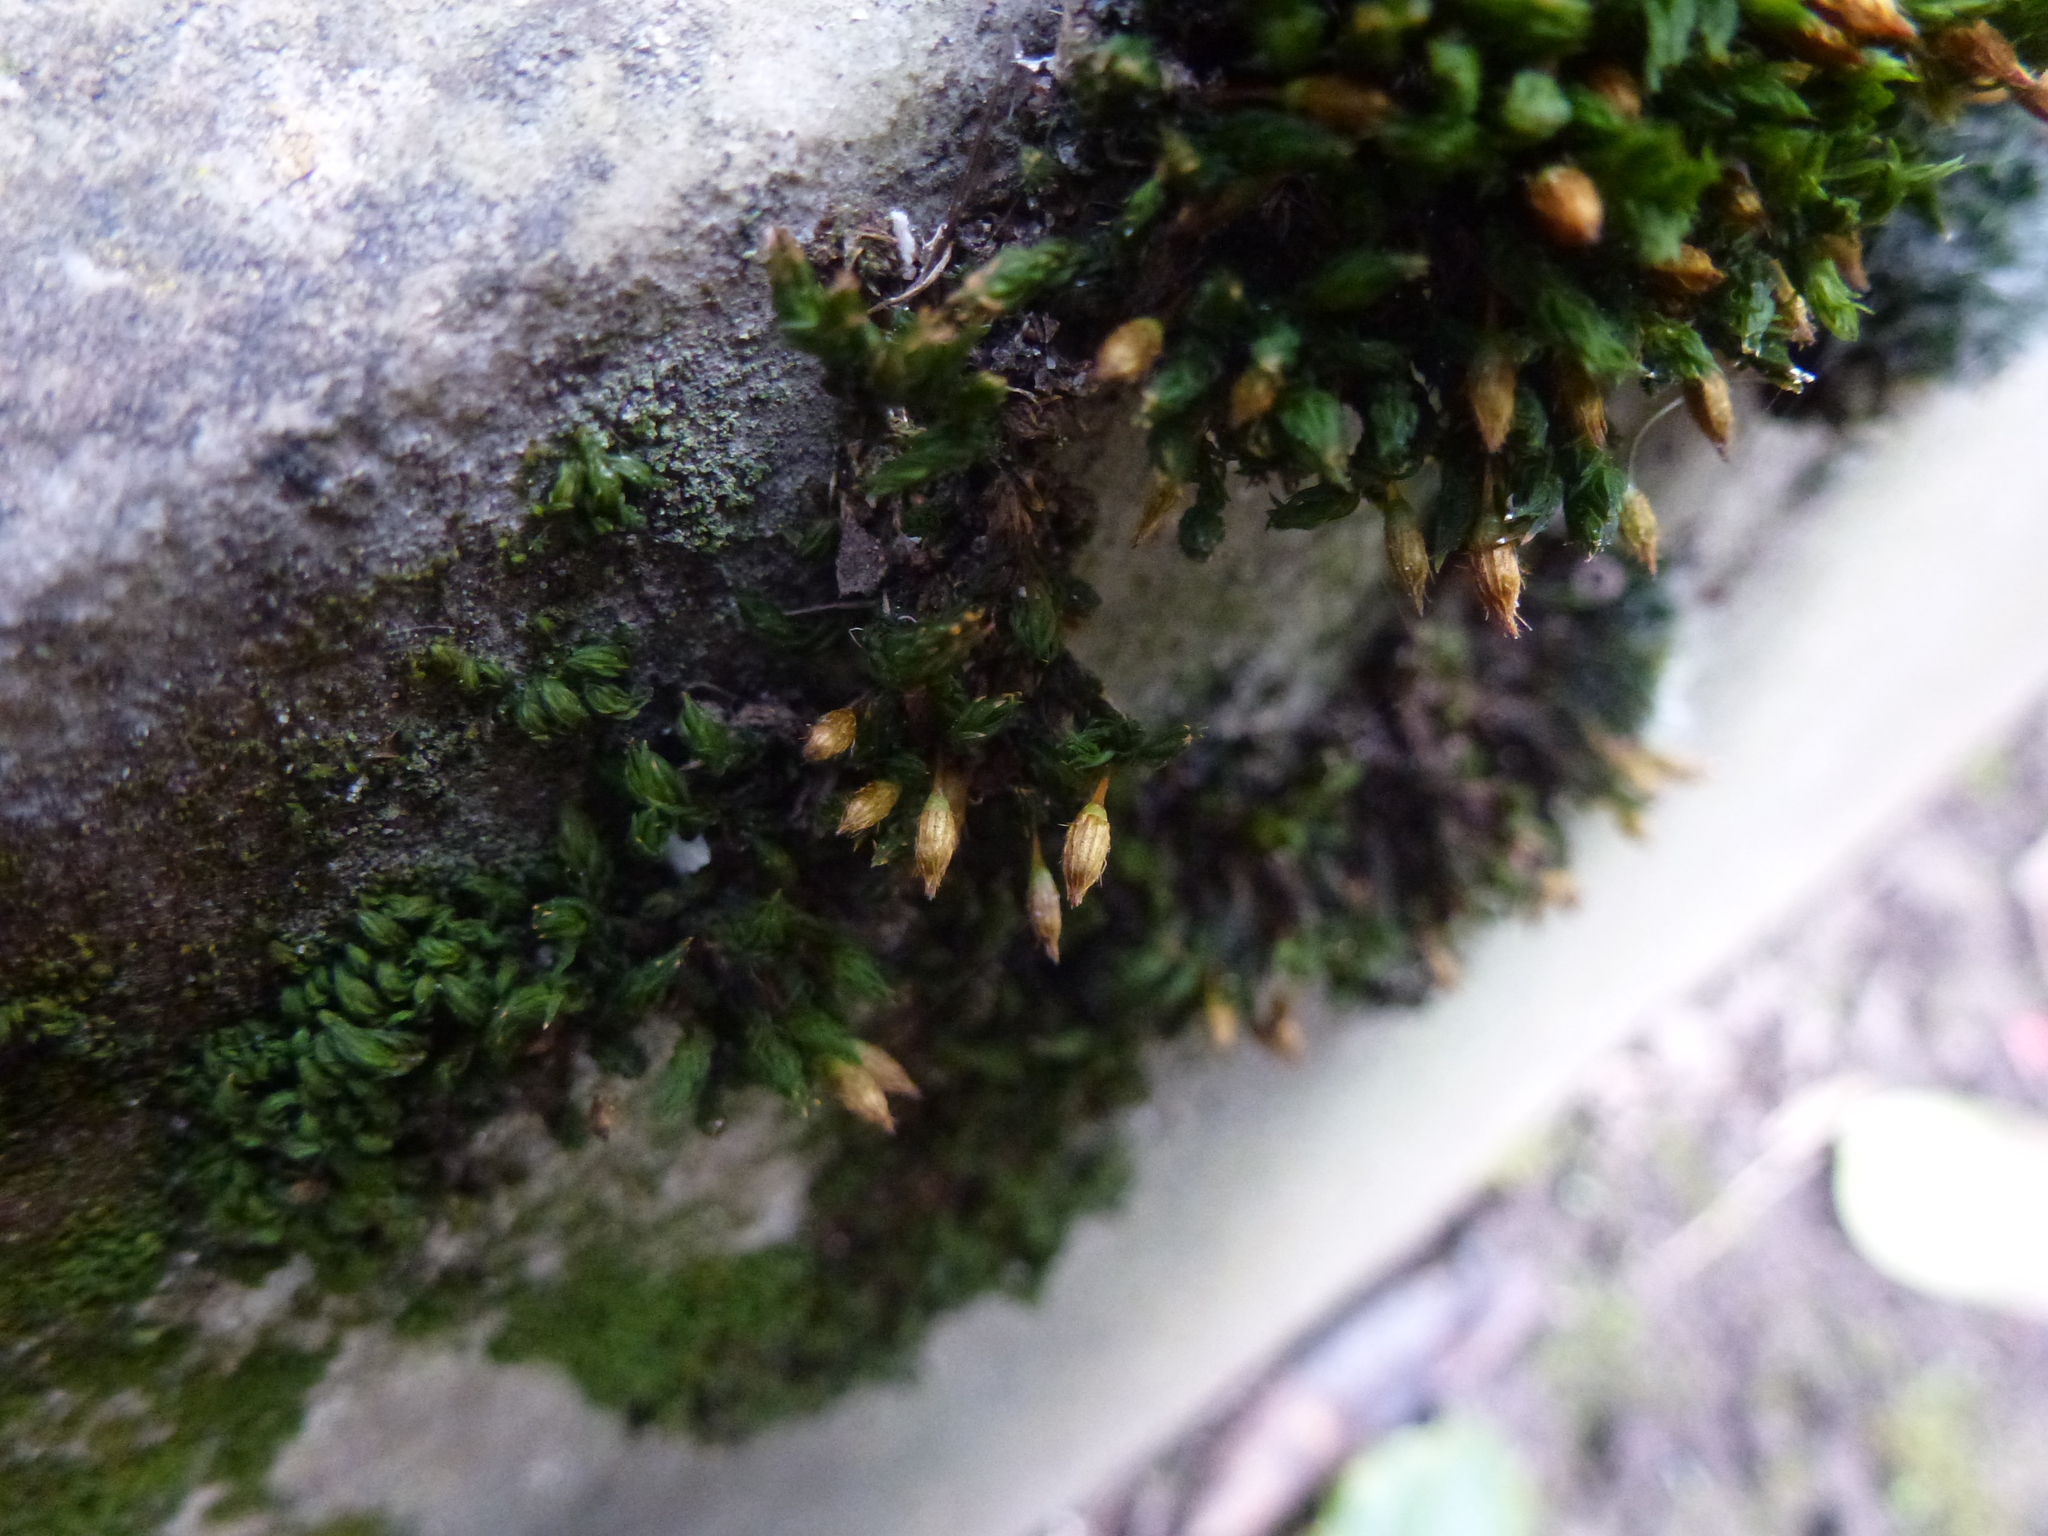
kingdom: Plantae
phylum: Bryophyta
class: Bryopsida
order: Orthotrichales
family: Orthotrichaceae
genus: Orthotrichum
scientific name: Orthotrichum anomalum
